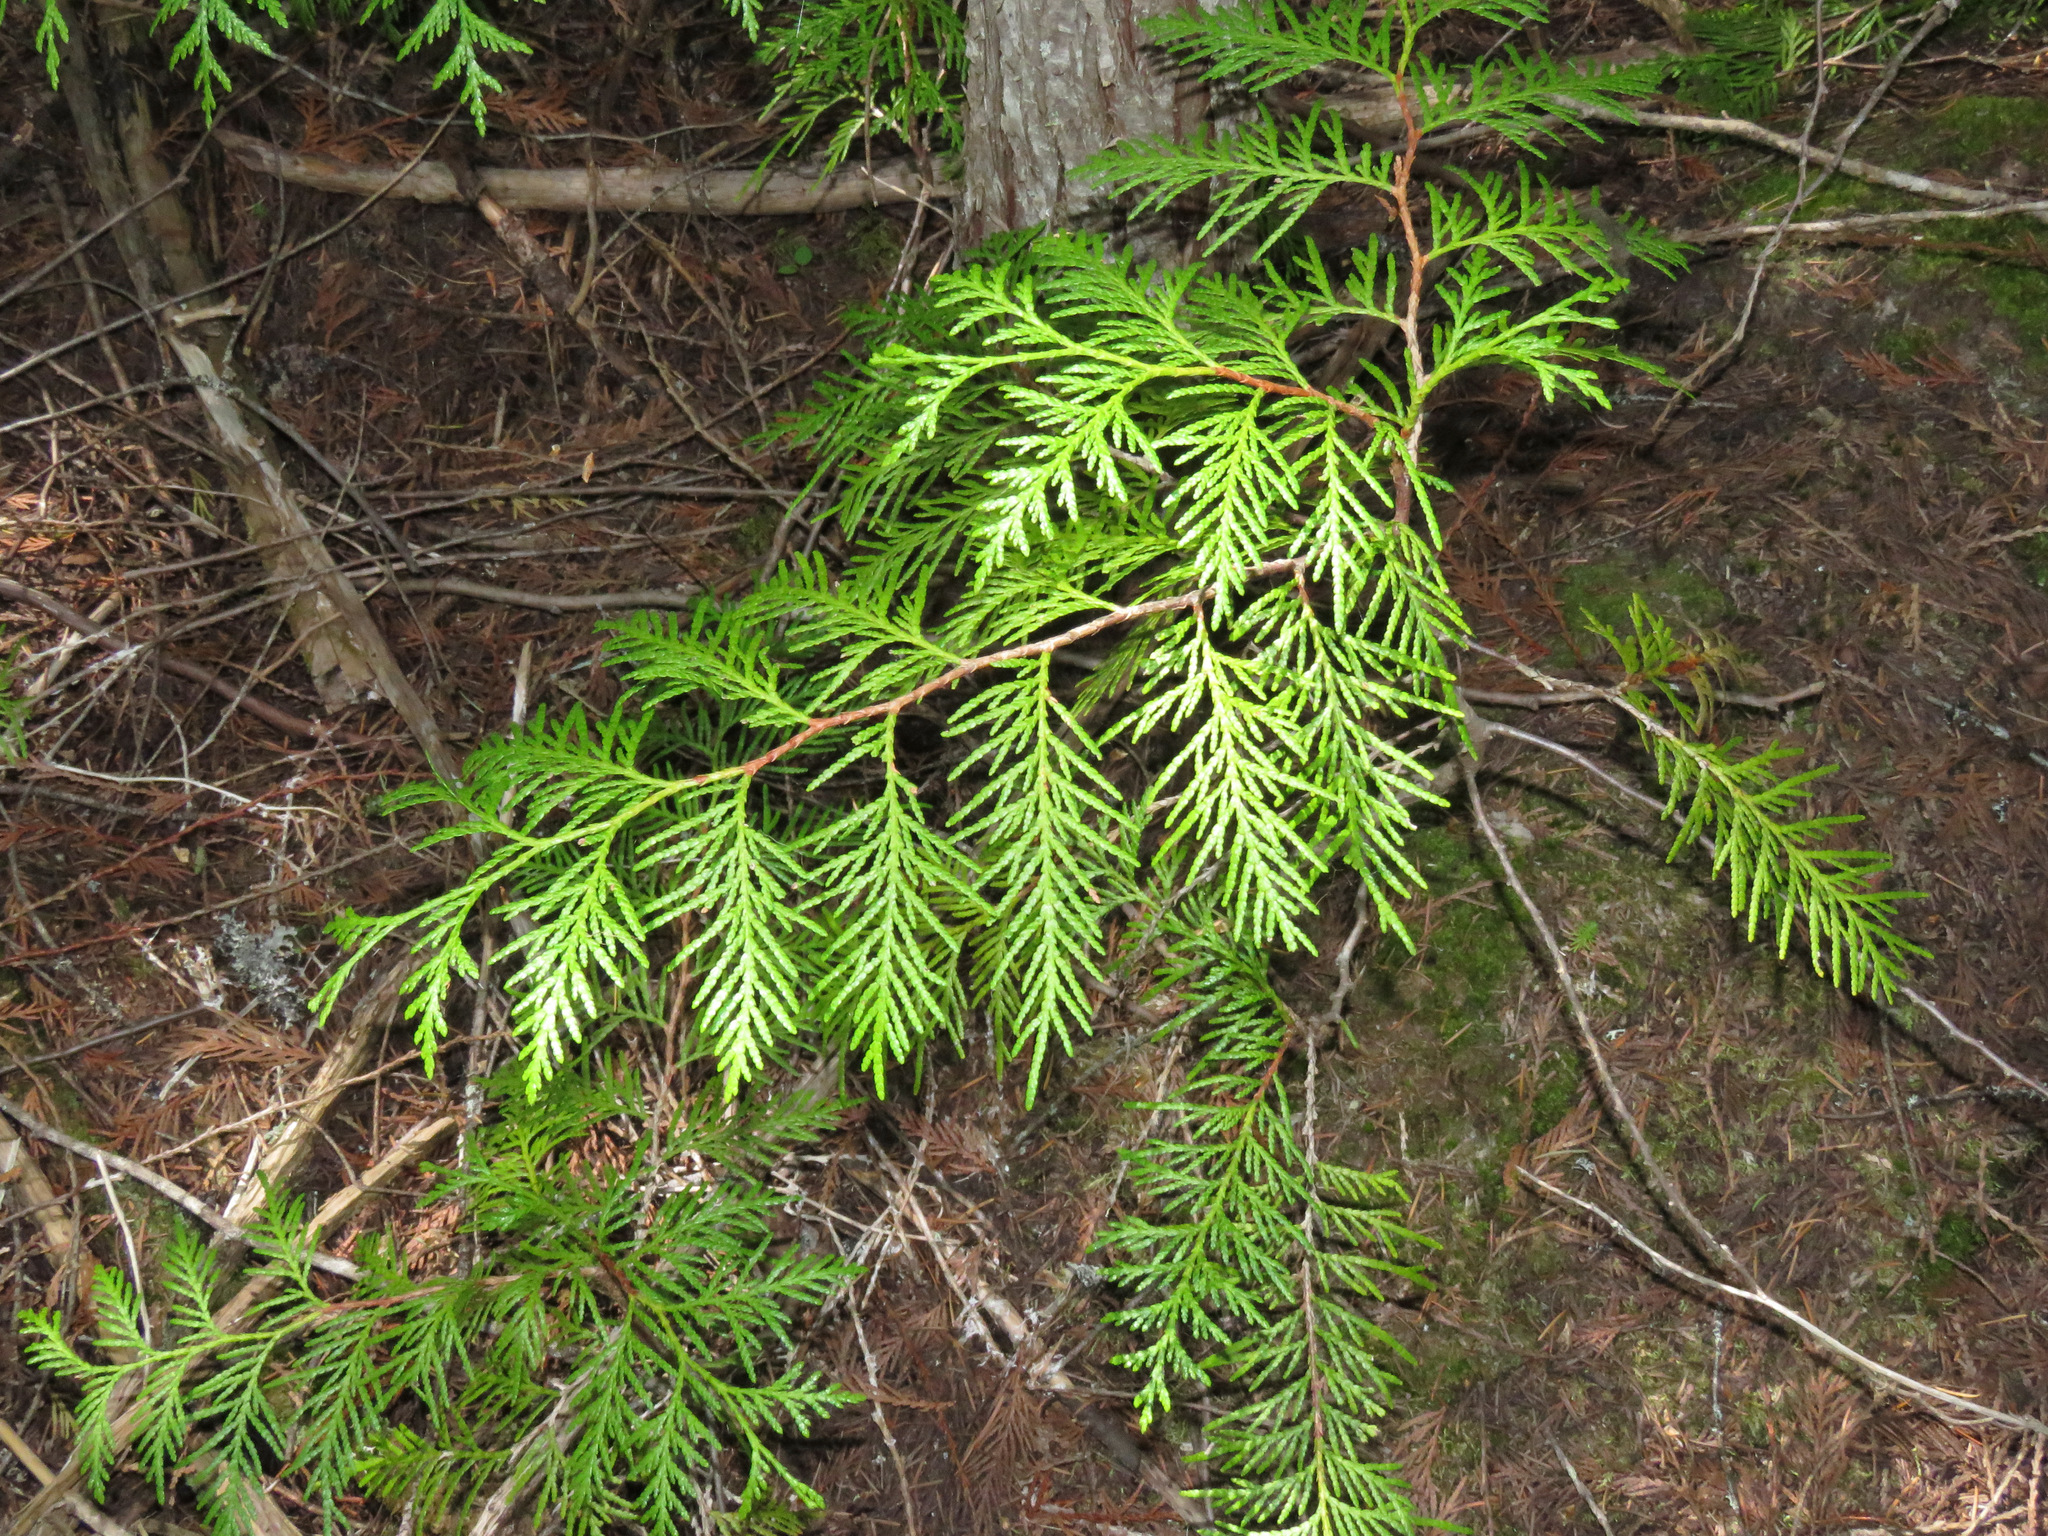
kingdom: Plantae
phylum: Tracheophyta
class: Pinopsida
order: Pinales
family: Cupressaceae
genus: Thuja
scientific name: Thuja plicata
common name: Western red-cedar
